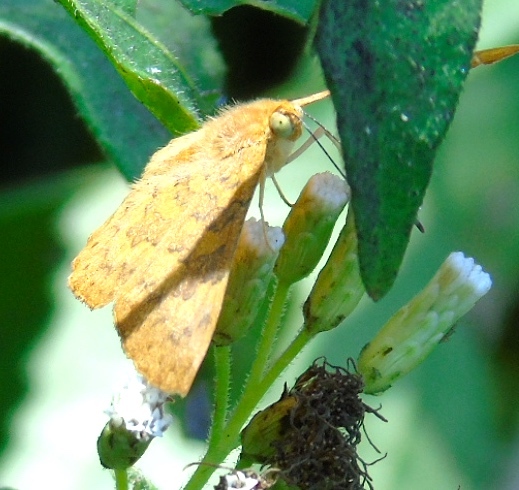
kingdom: Animalia
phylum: Arthropoda
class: Insecta
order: Lepidoptera
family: Lycaenidae
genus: Emesis
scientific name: Emesis
